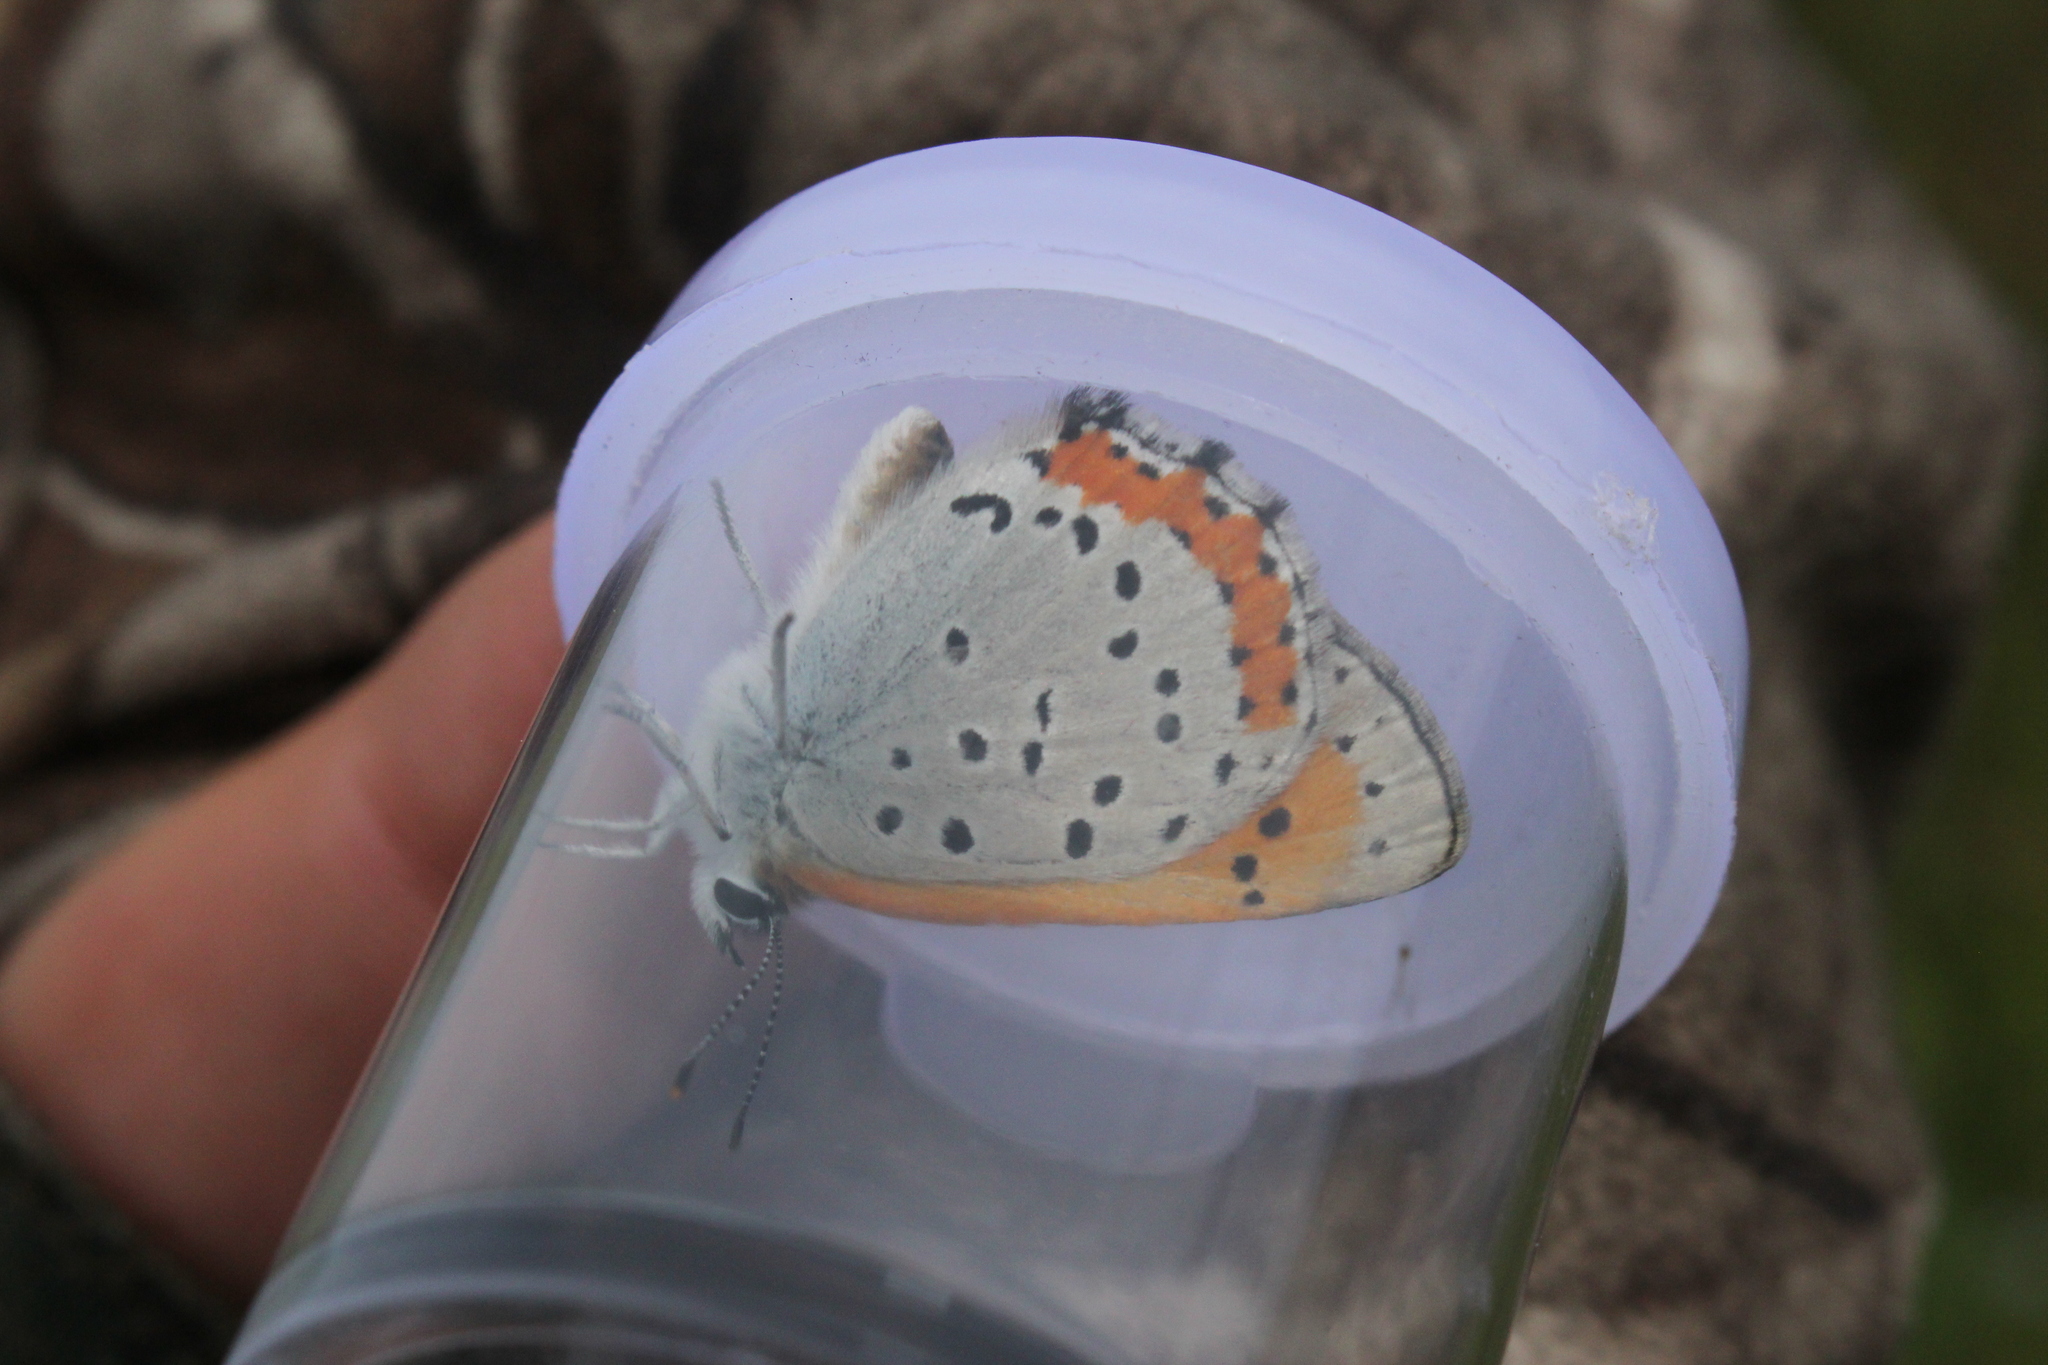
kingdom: Animalia
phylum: Arthropoda
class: Insecta
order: Lepidoptera
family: Lycaenidae
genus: Tharsalea
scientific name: Tharsalea hyllus
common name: Bronze copper
